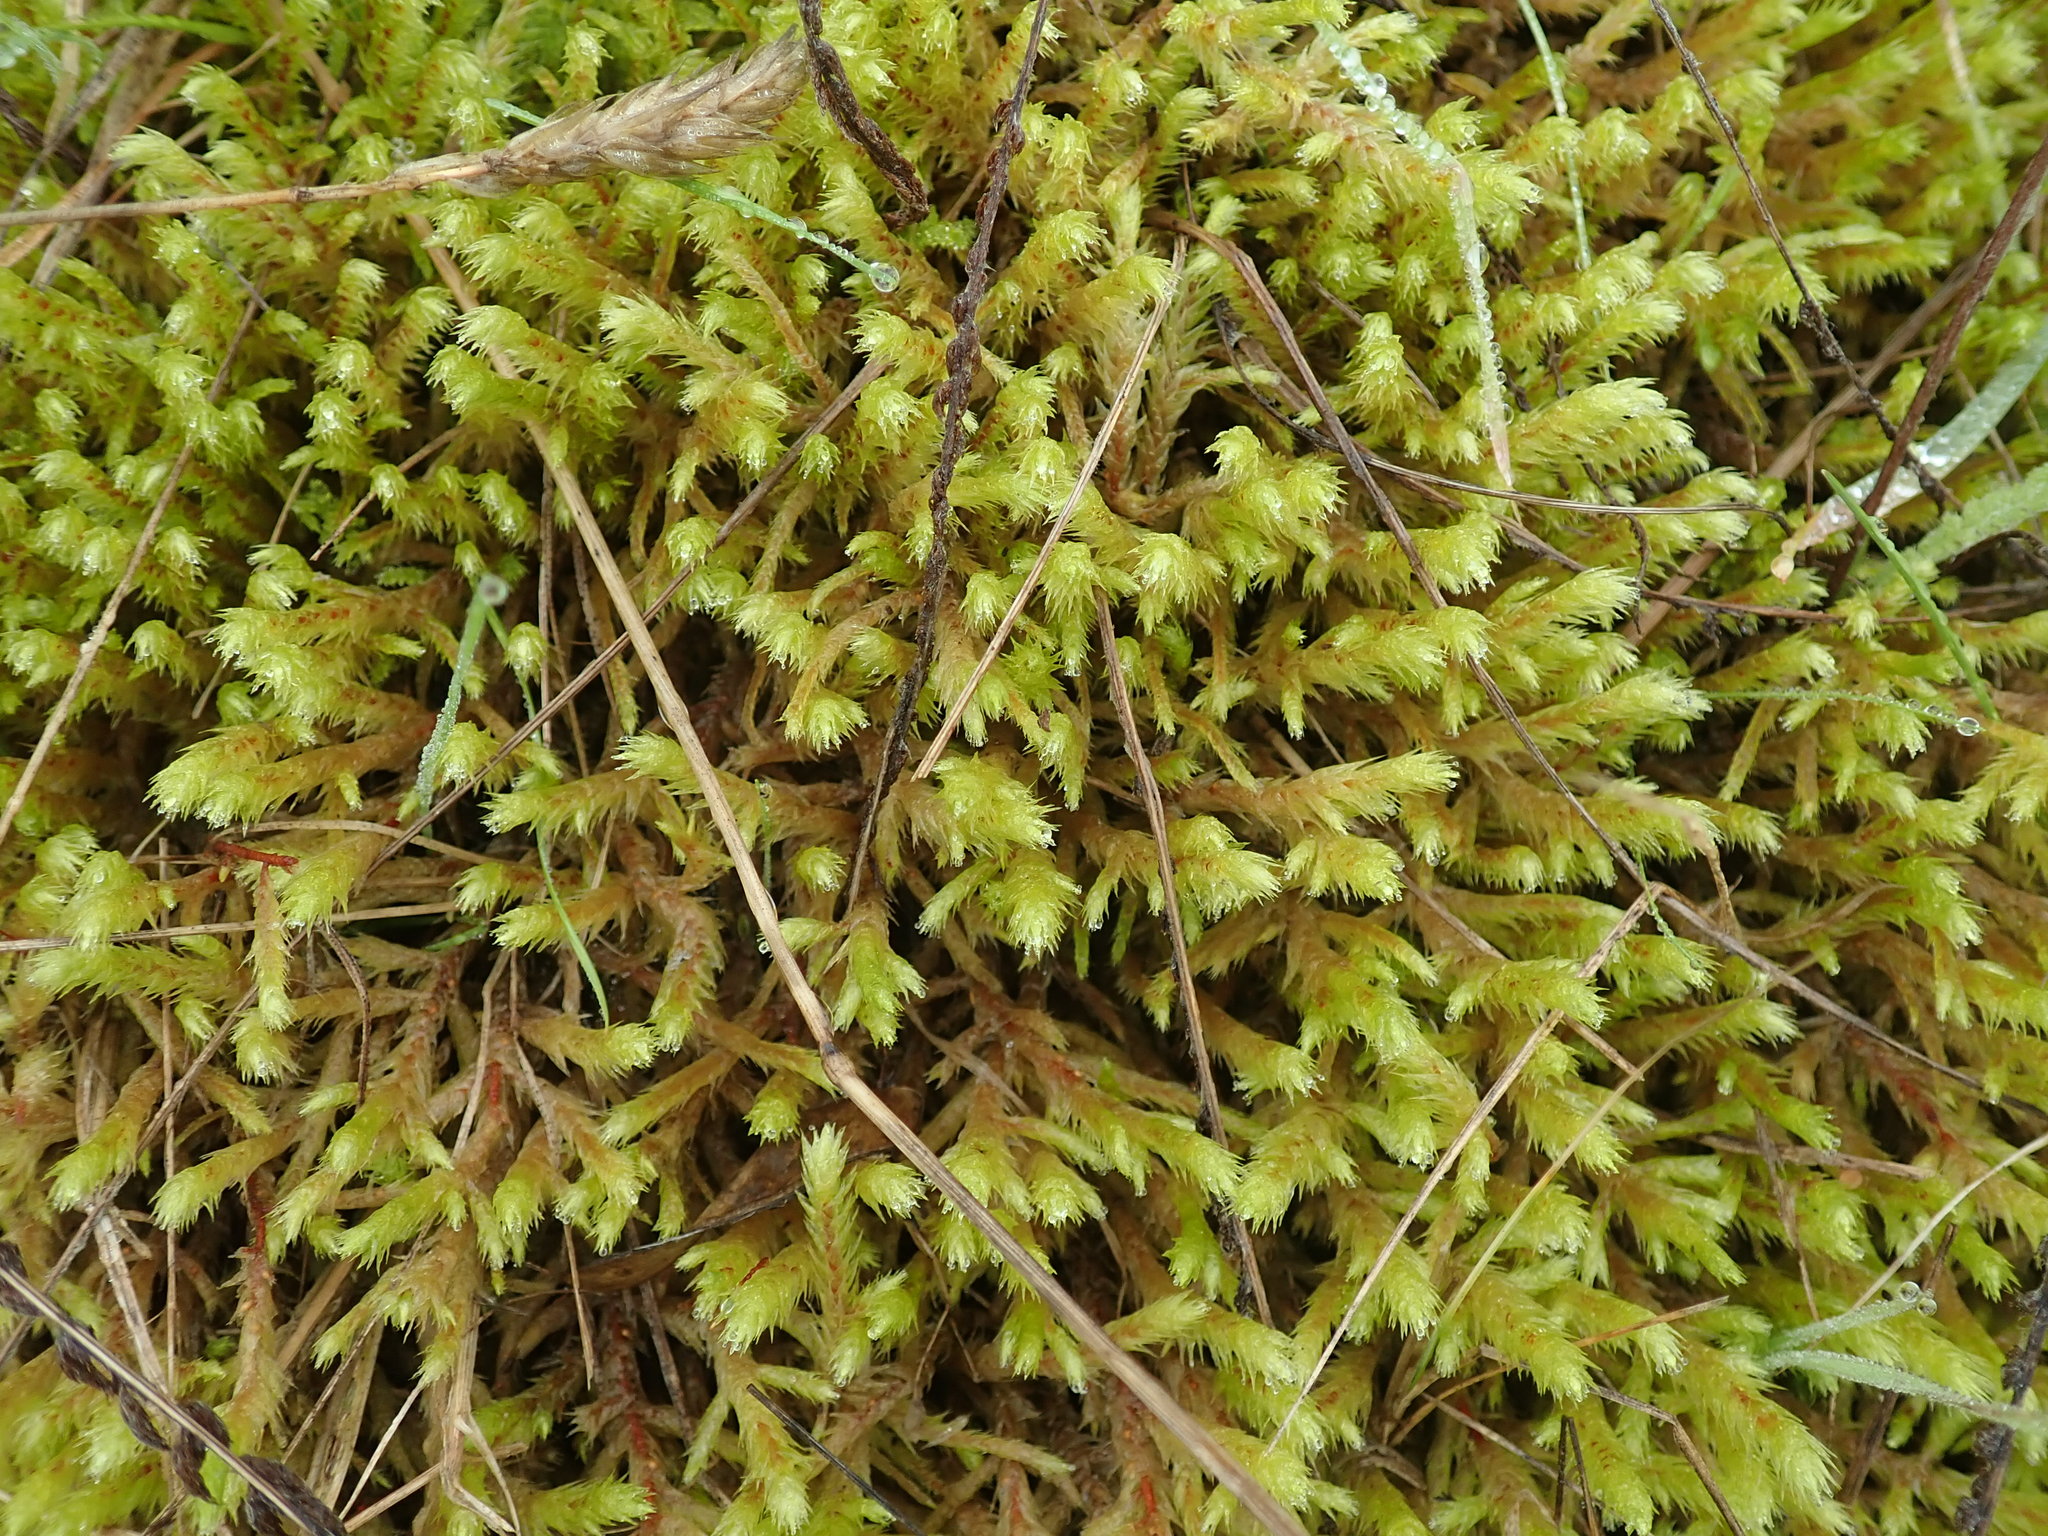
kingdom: Plantae
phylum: Bryophyta
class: Bryopsida
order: Hypnales
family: Hylocomiaceae
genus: Hylocomiadelphus
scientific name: Hylocomiadelphus triquetrus
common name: Rough goose neck moss
